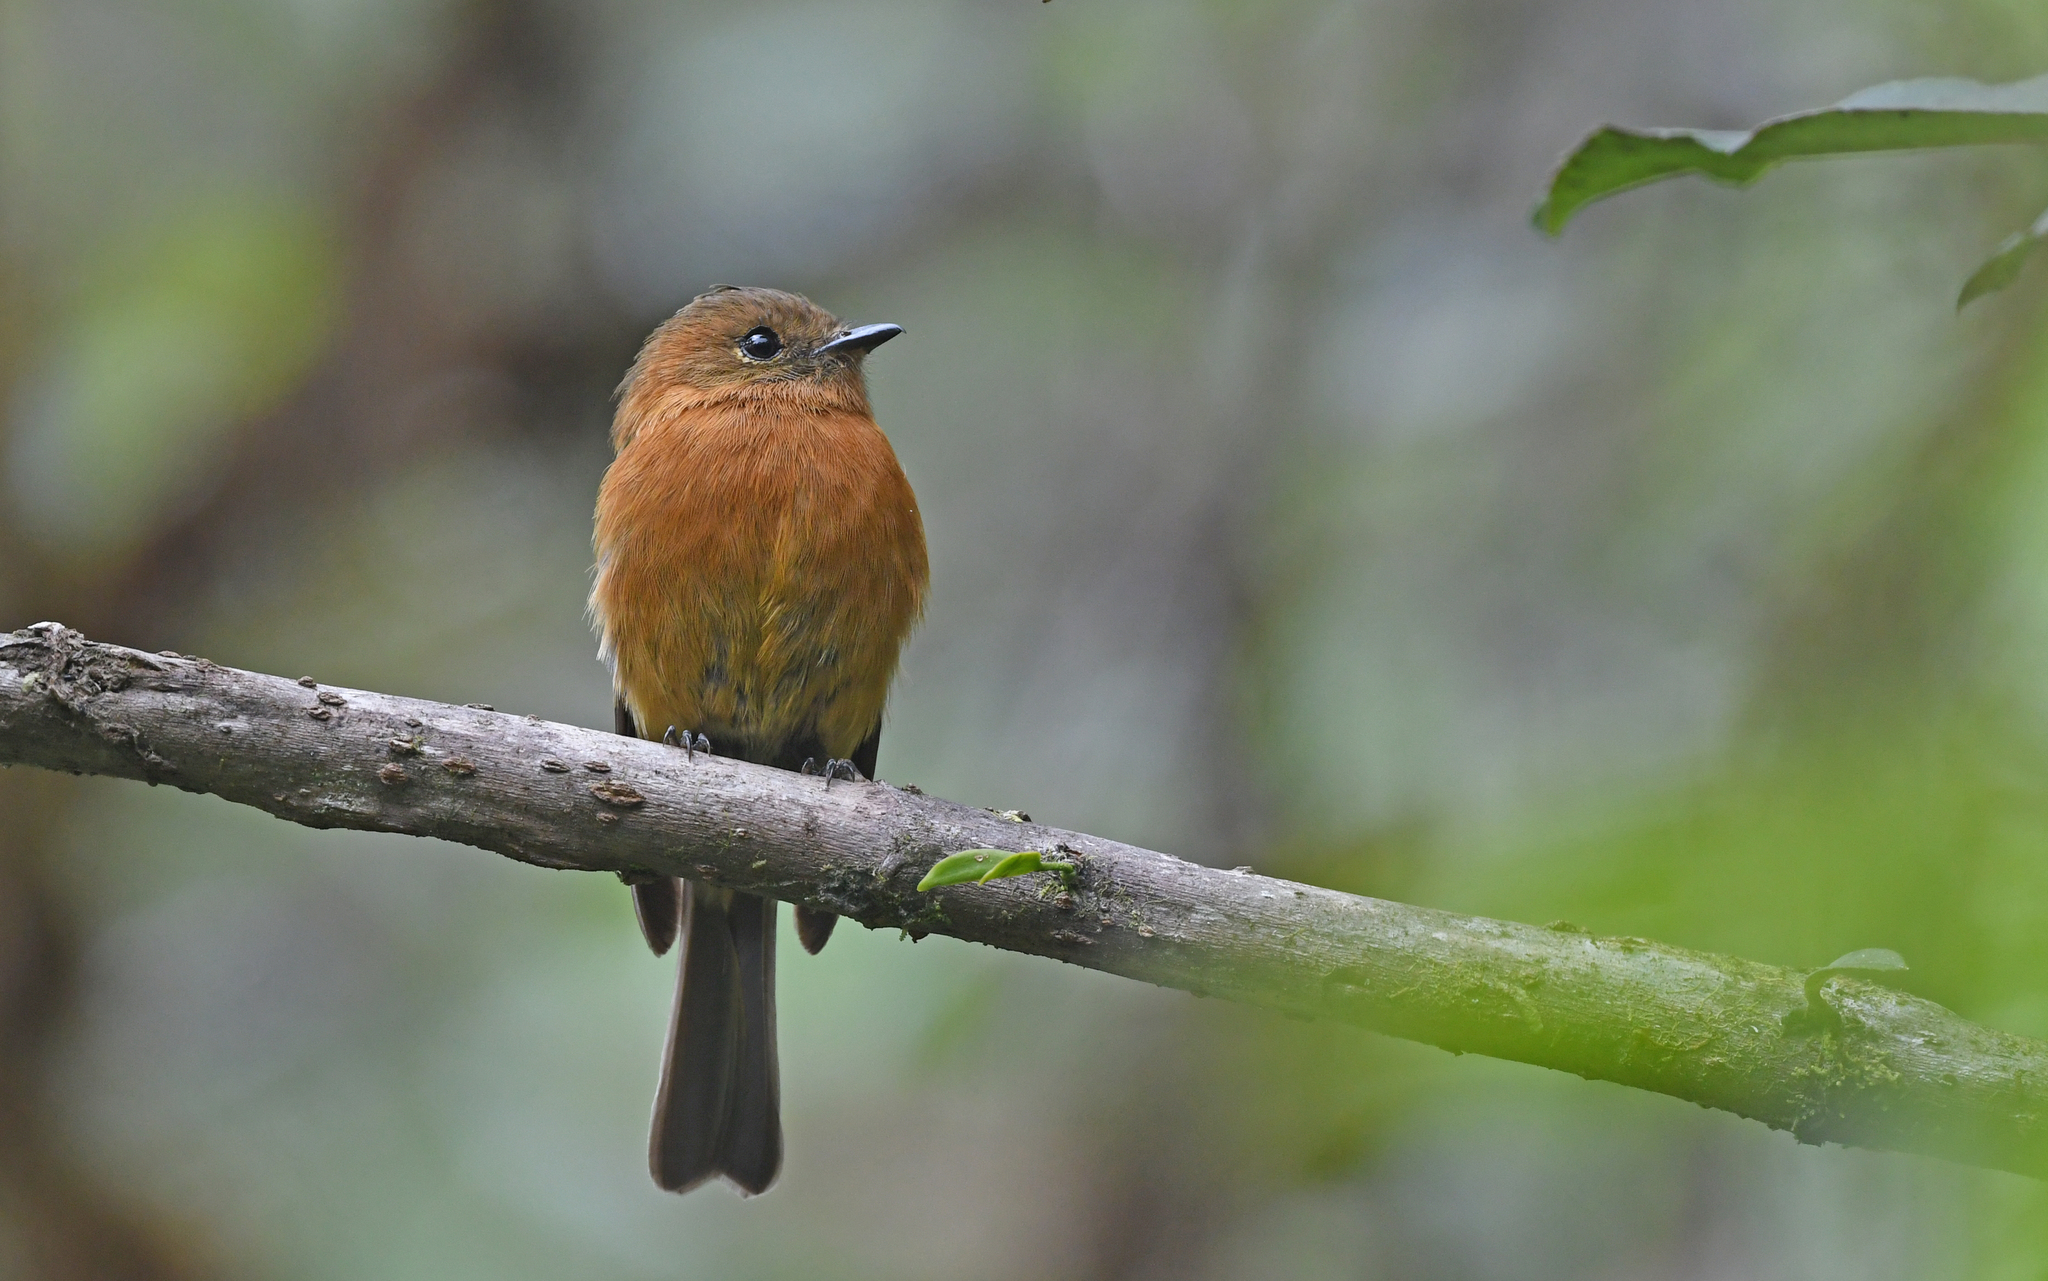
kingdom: Animalia
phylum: Chordata
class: Aves
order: Passeriformes
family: Tyrannidae
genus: Pyrrhomyias
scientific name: Pyrrhomyias cinnamomeus
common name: Cinnamon flycatcher
